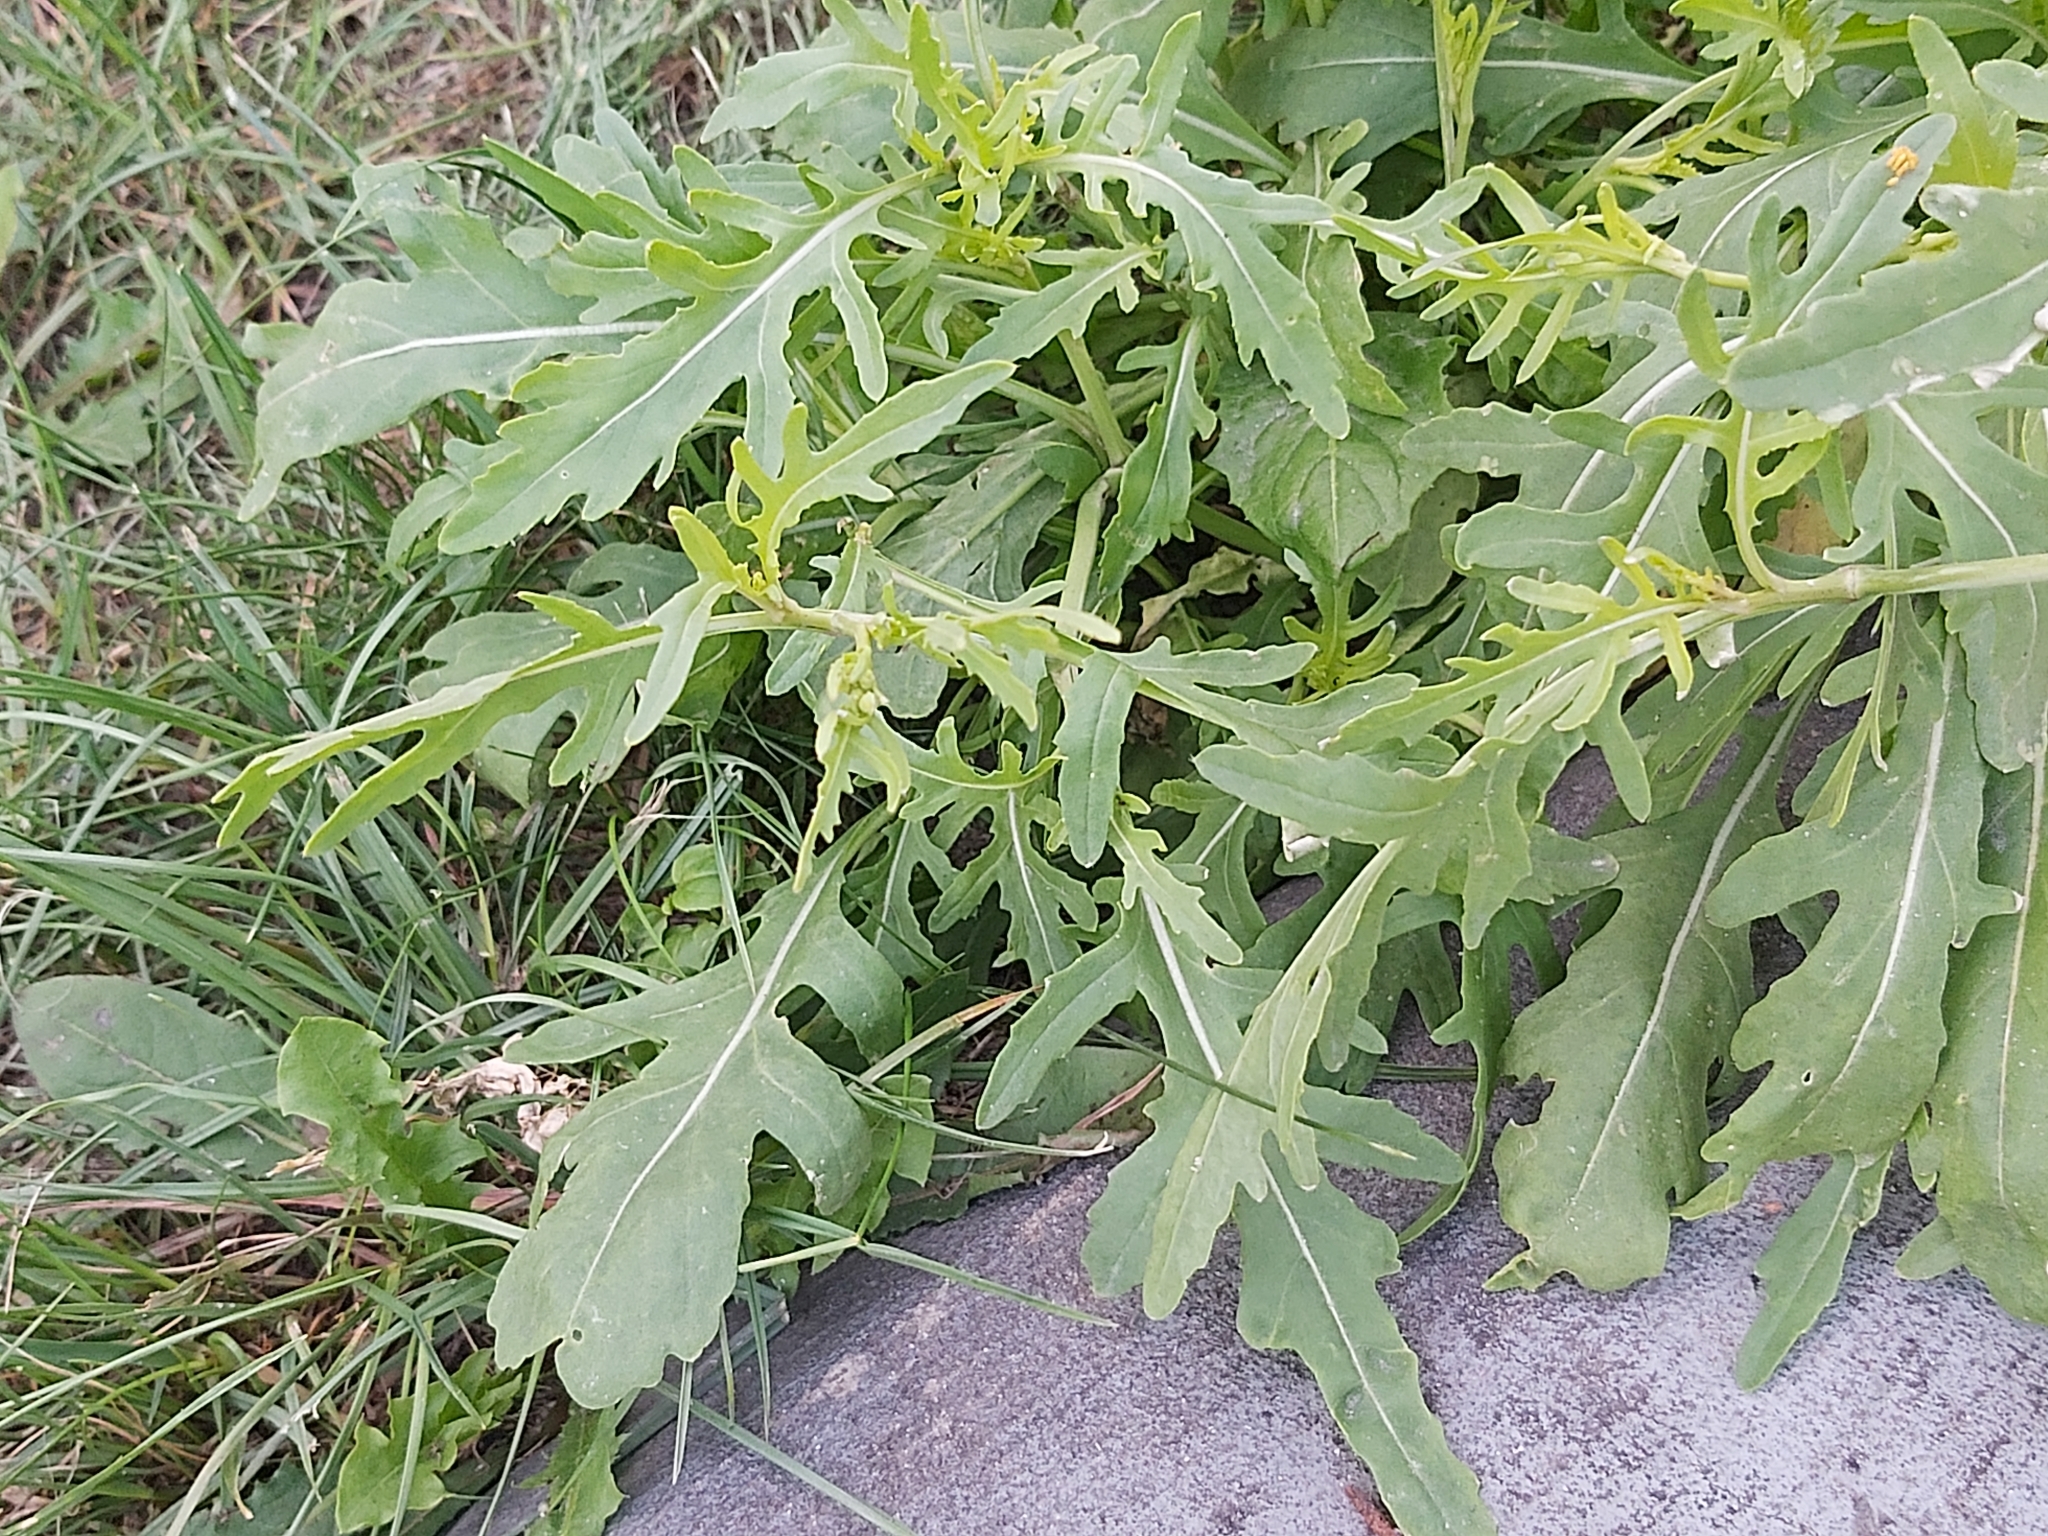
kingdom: Plantae
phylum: Tracheophyta
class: Magnoliopsida
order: Brassicales
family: Brassicaceae
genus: Diplotaxis
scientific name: Diplotaxis tenuifolia
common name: Perennial wall-rocket
